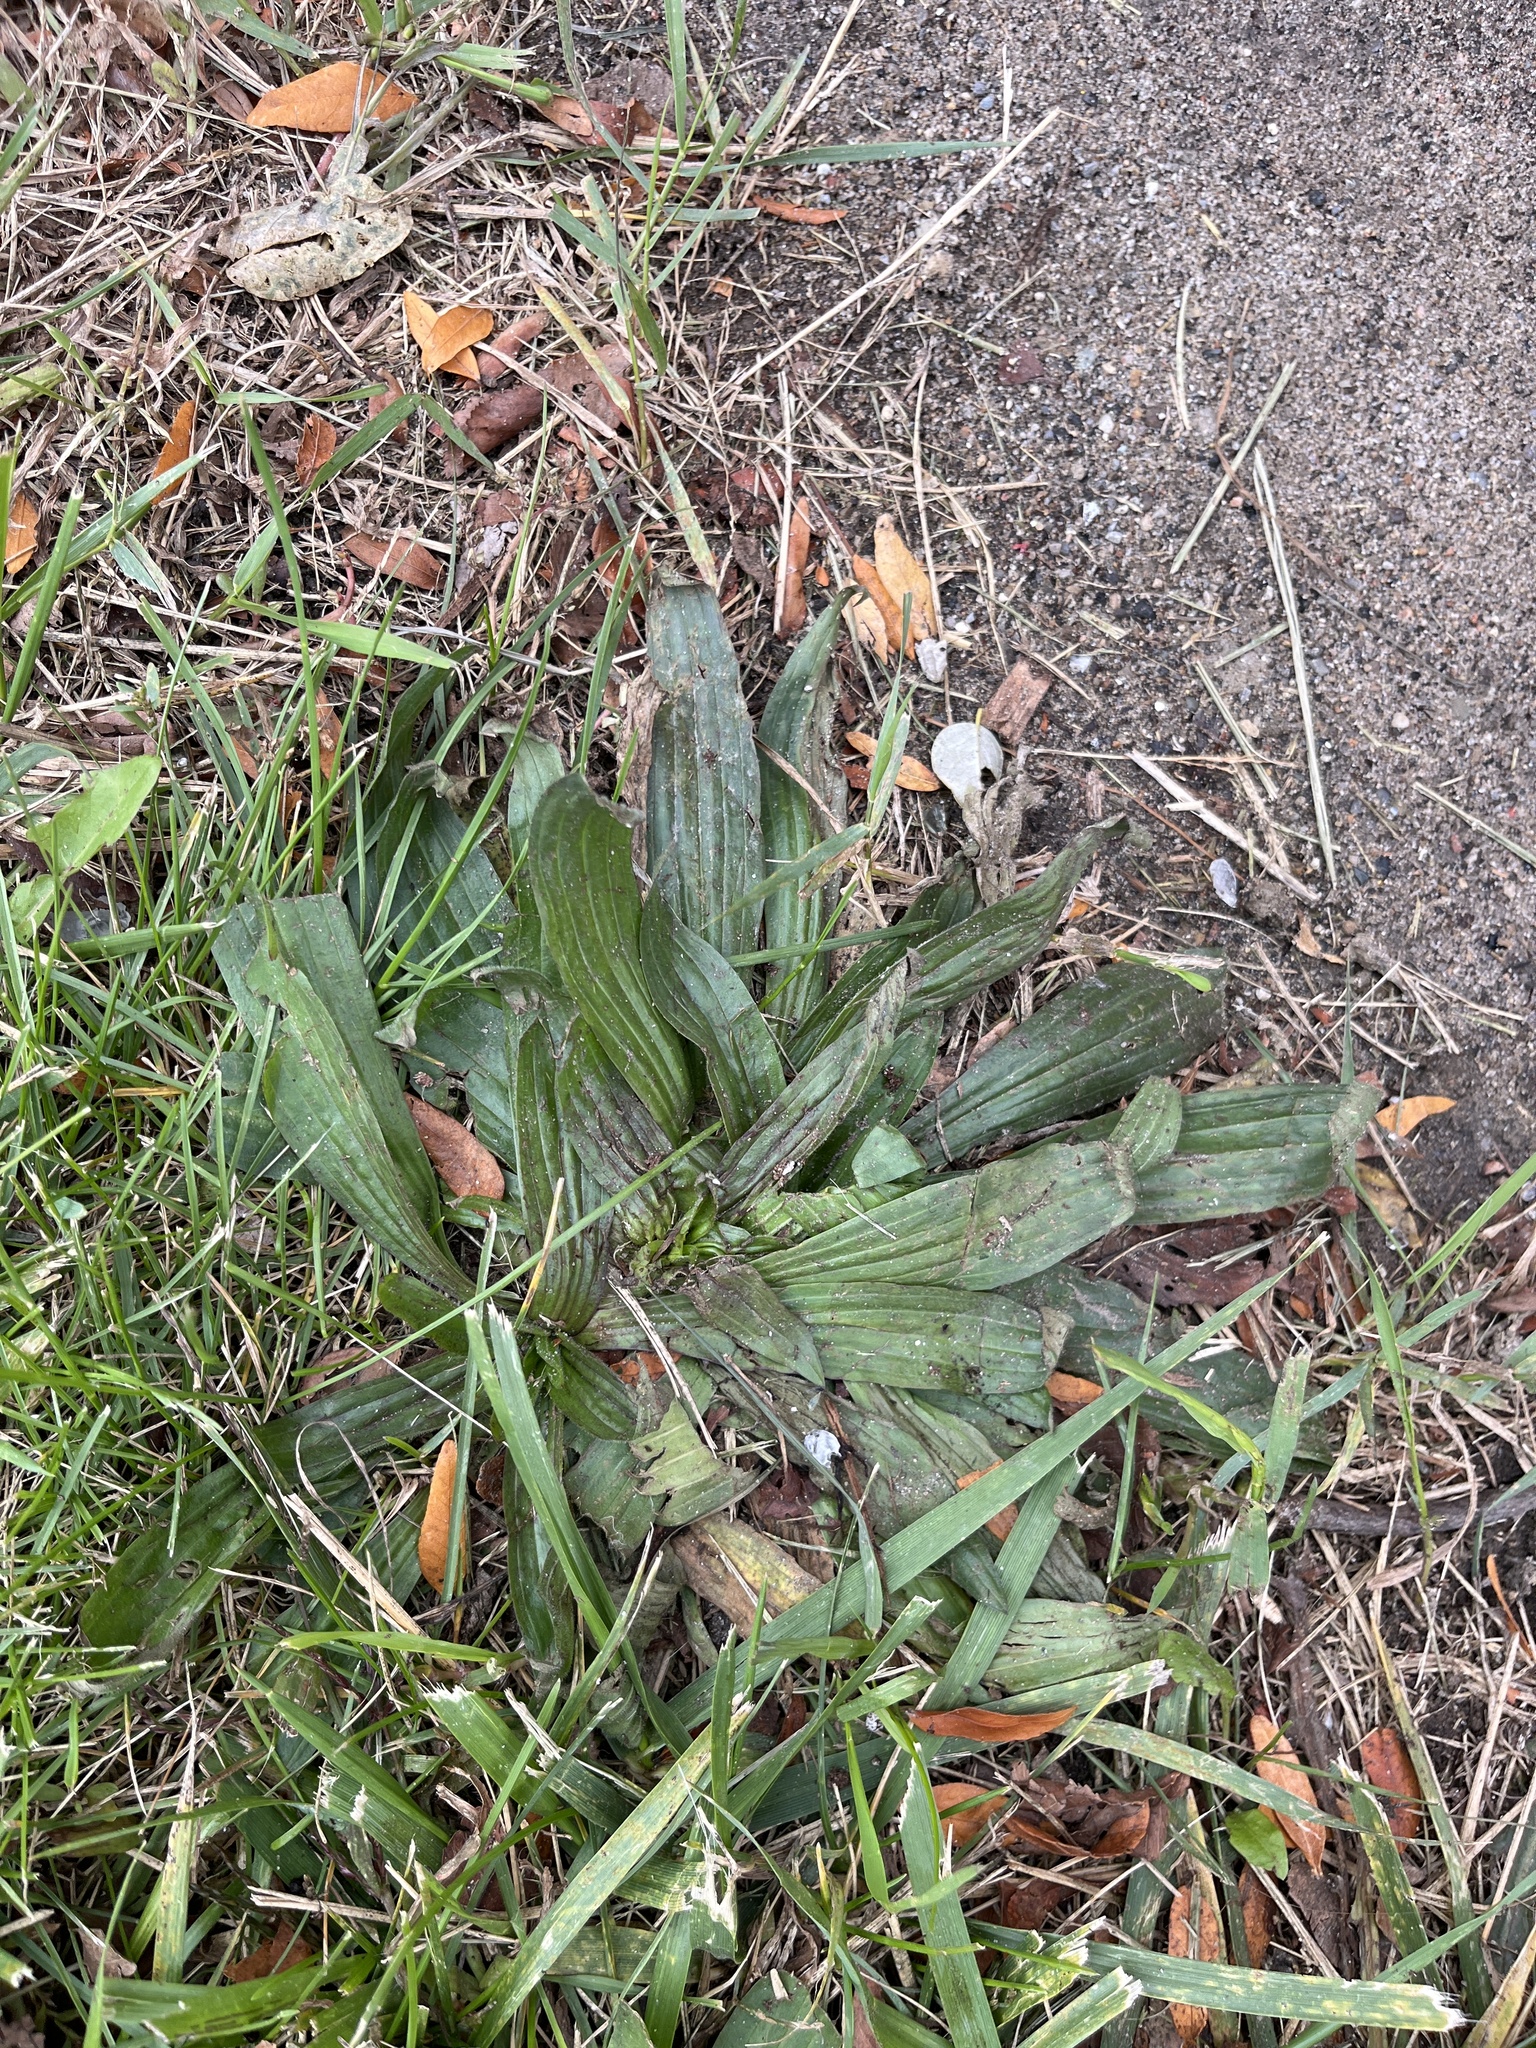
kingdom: Plantae
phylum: Tracheophyta
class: Magnoliopsida
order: Lamiales
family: Plantaginaceae
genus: Plantago
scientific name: Plantago lanceolata
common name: Ribwort plantain
